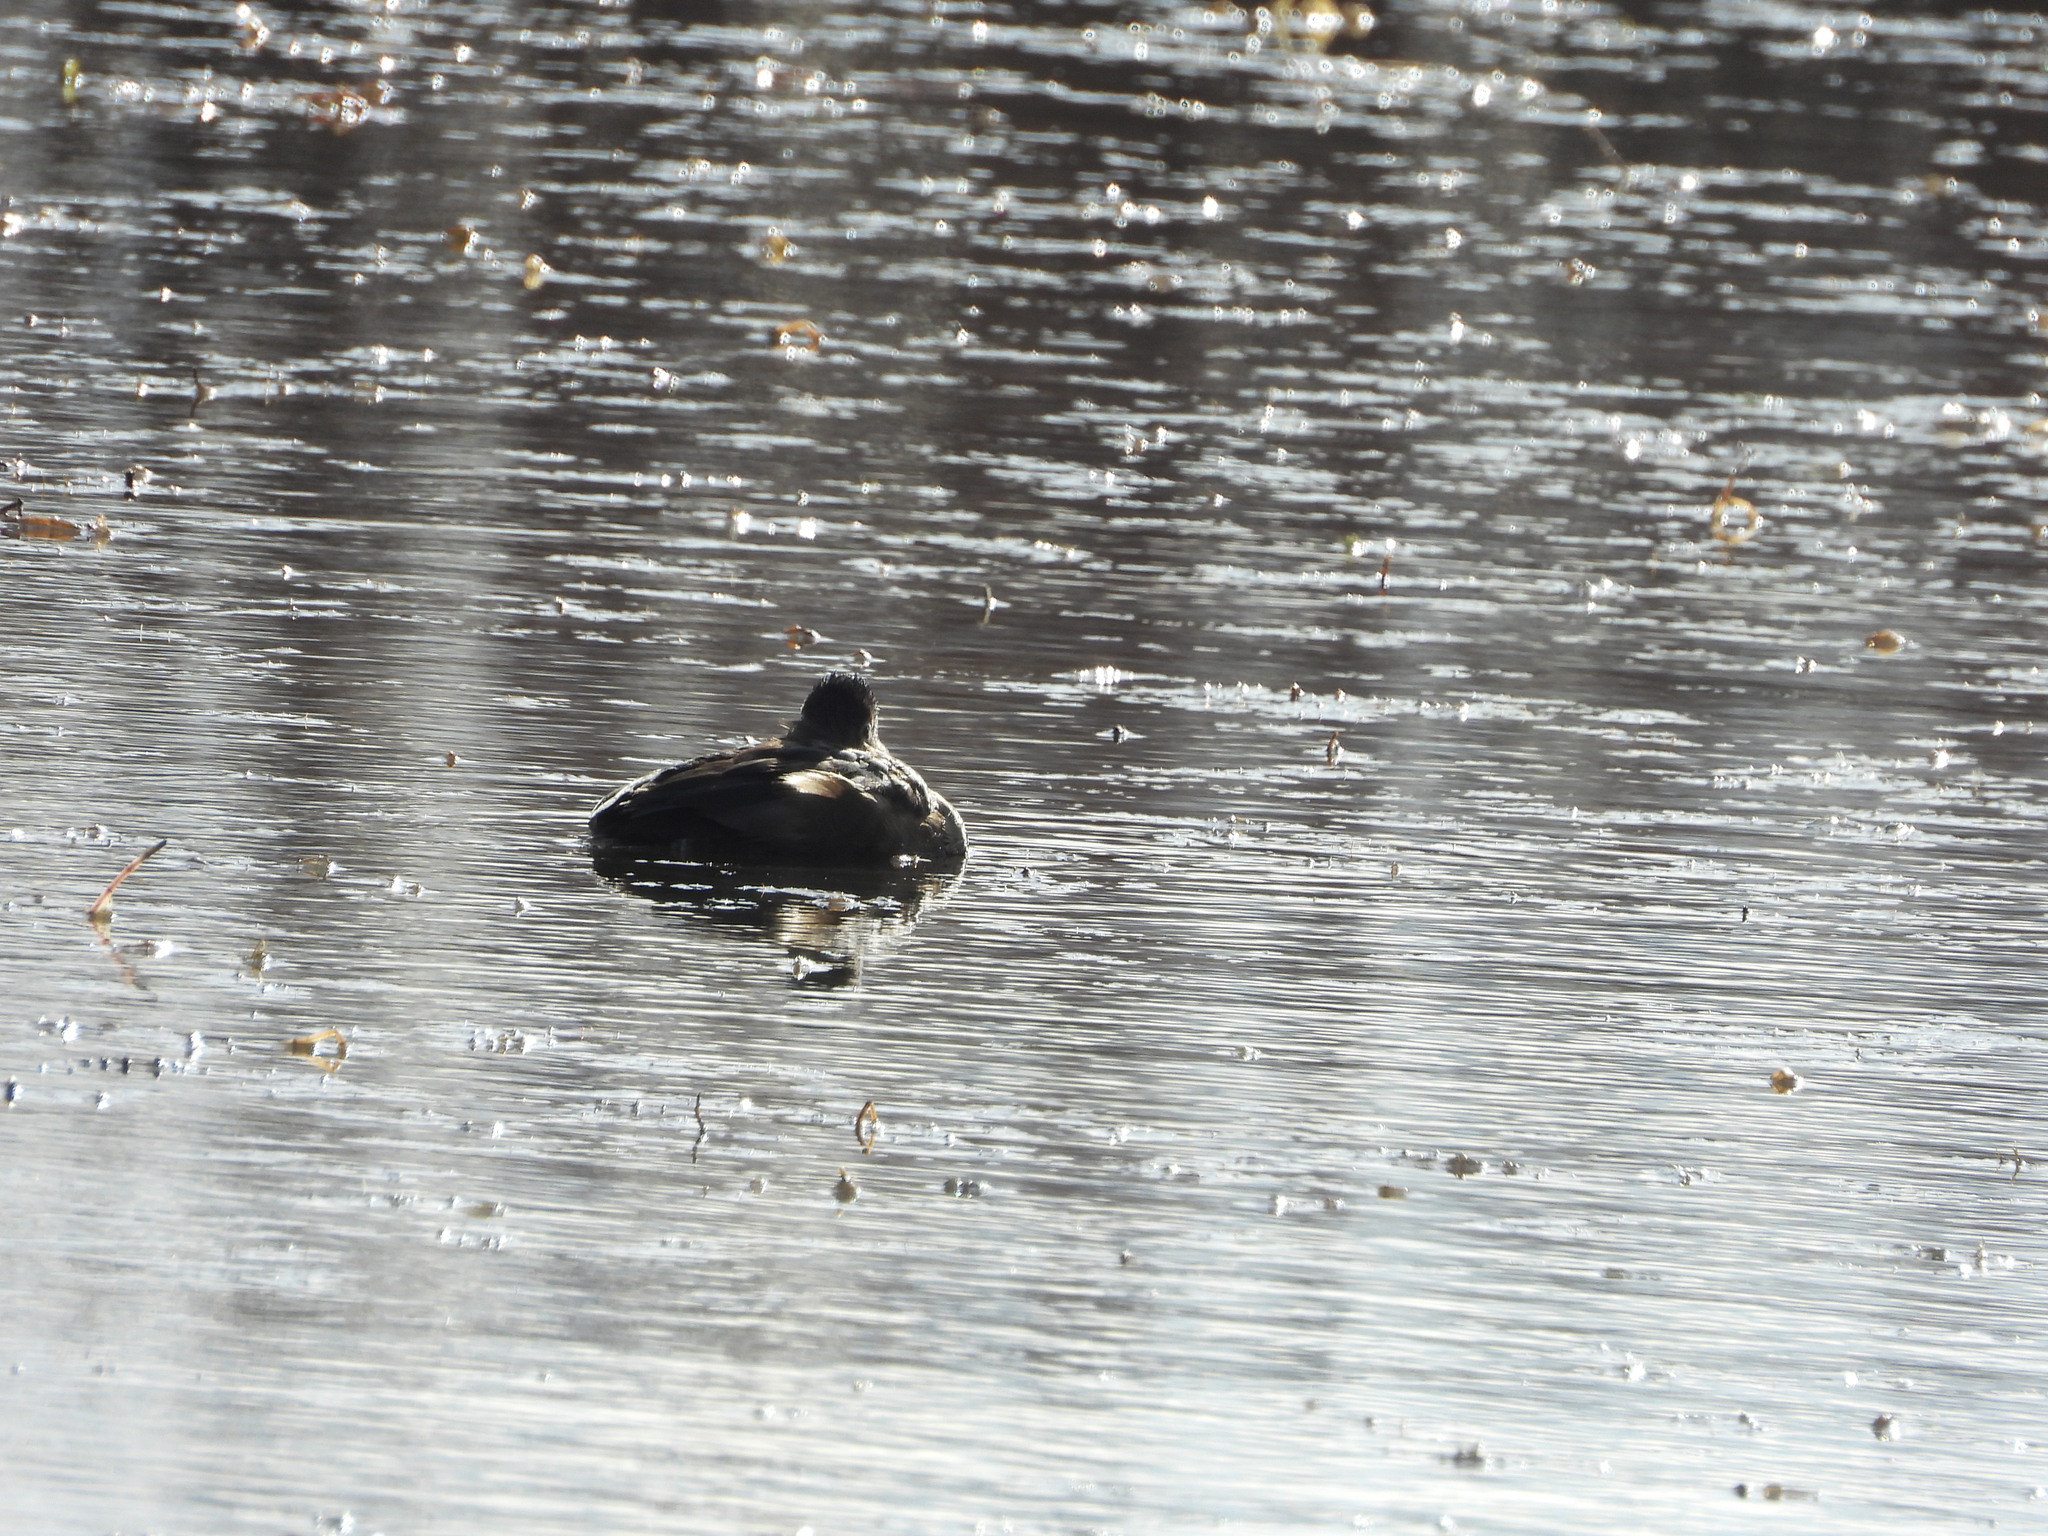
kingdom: Animalia
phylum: Chordata
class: Aves
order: Anseriformes
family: Anatidae
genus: Aythya
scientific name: Aythya collaris
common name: Ring-necked duck
